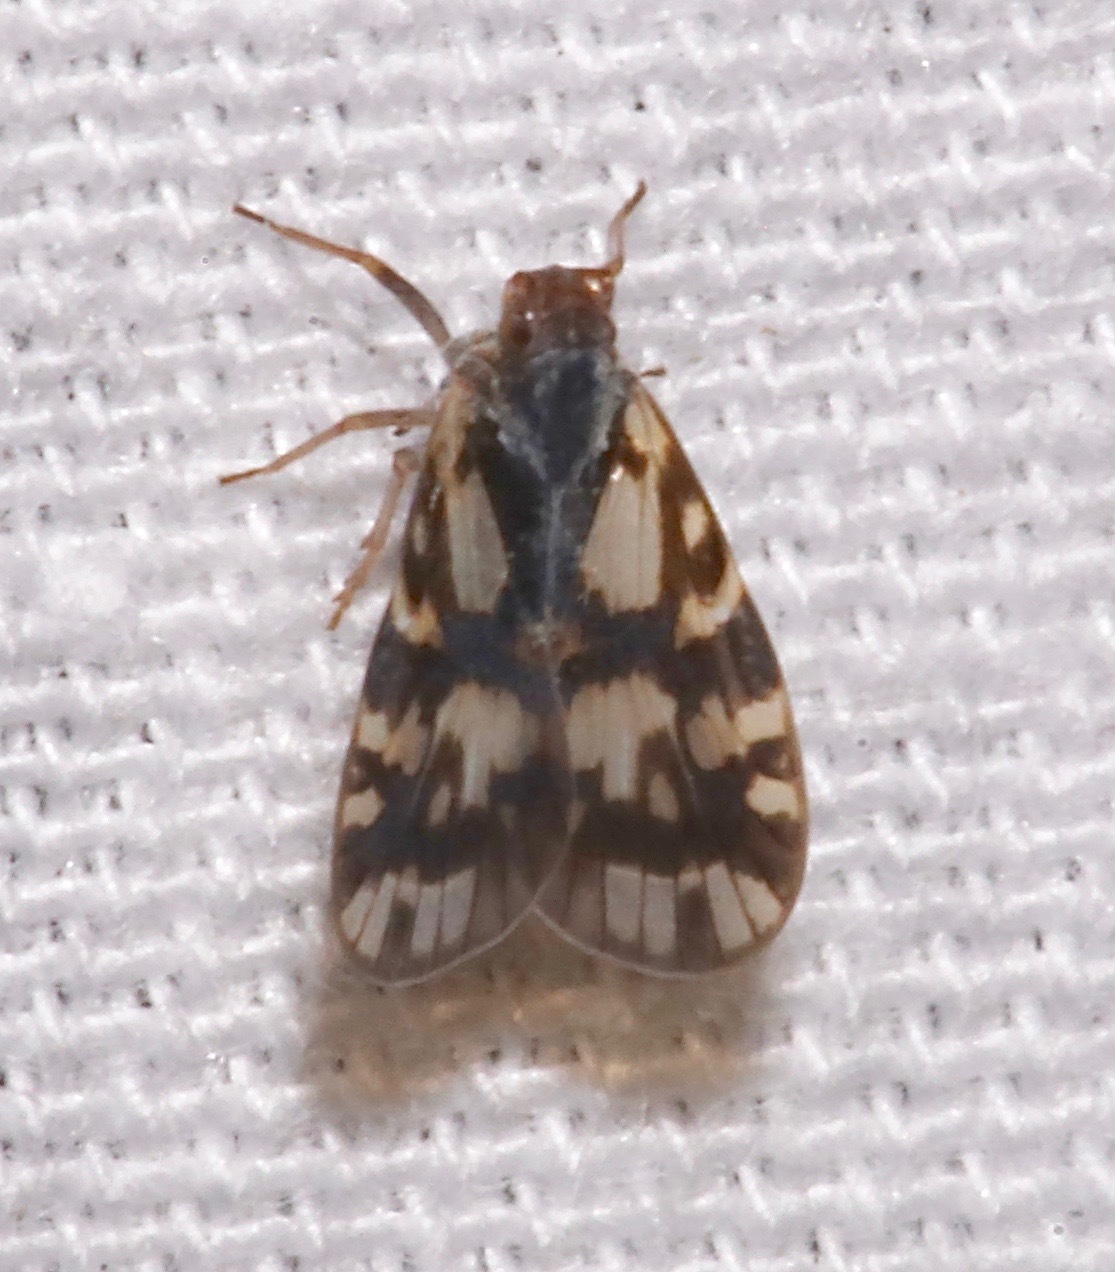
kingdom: Animalia
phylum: Arthropoda
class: Insecta
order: Hemiptera
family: Cixiidae
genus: Bothriocera
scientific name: Bothriocera cognita
